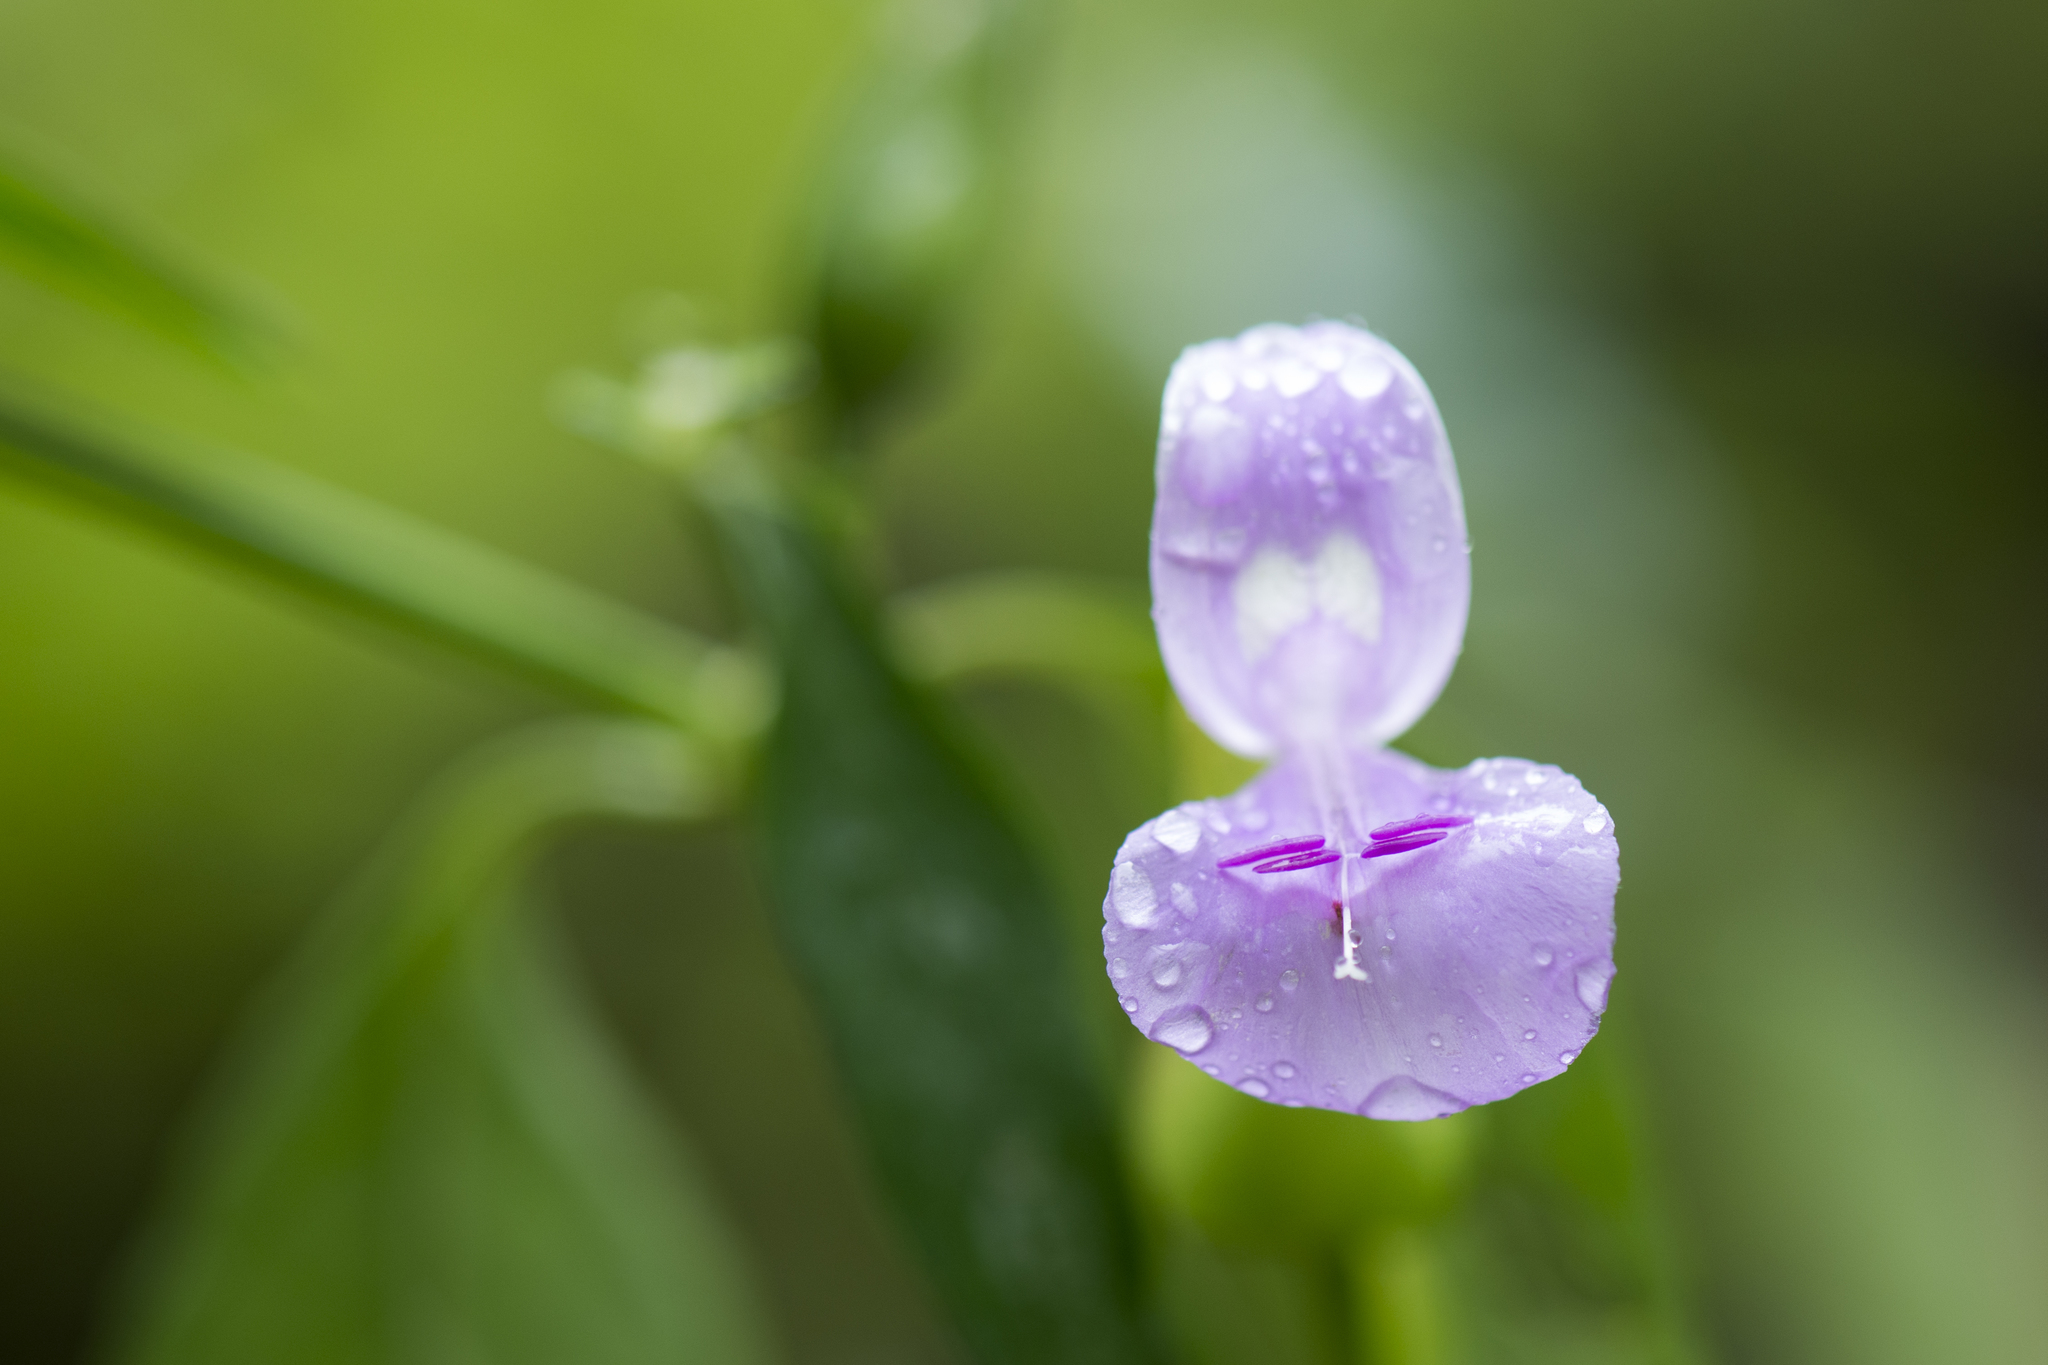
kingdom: Plantae
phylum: Tracheophyta
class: Magnoliopsida
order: Lamiales
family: Acanthaceae
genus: Dicliptera
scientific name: Dicliptera tinctoria
